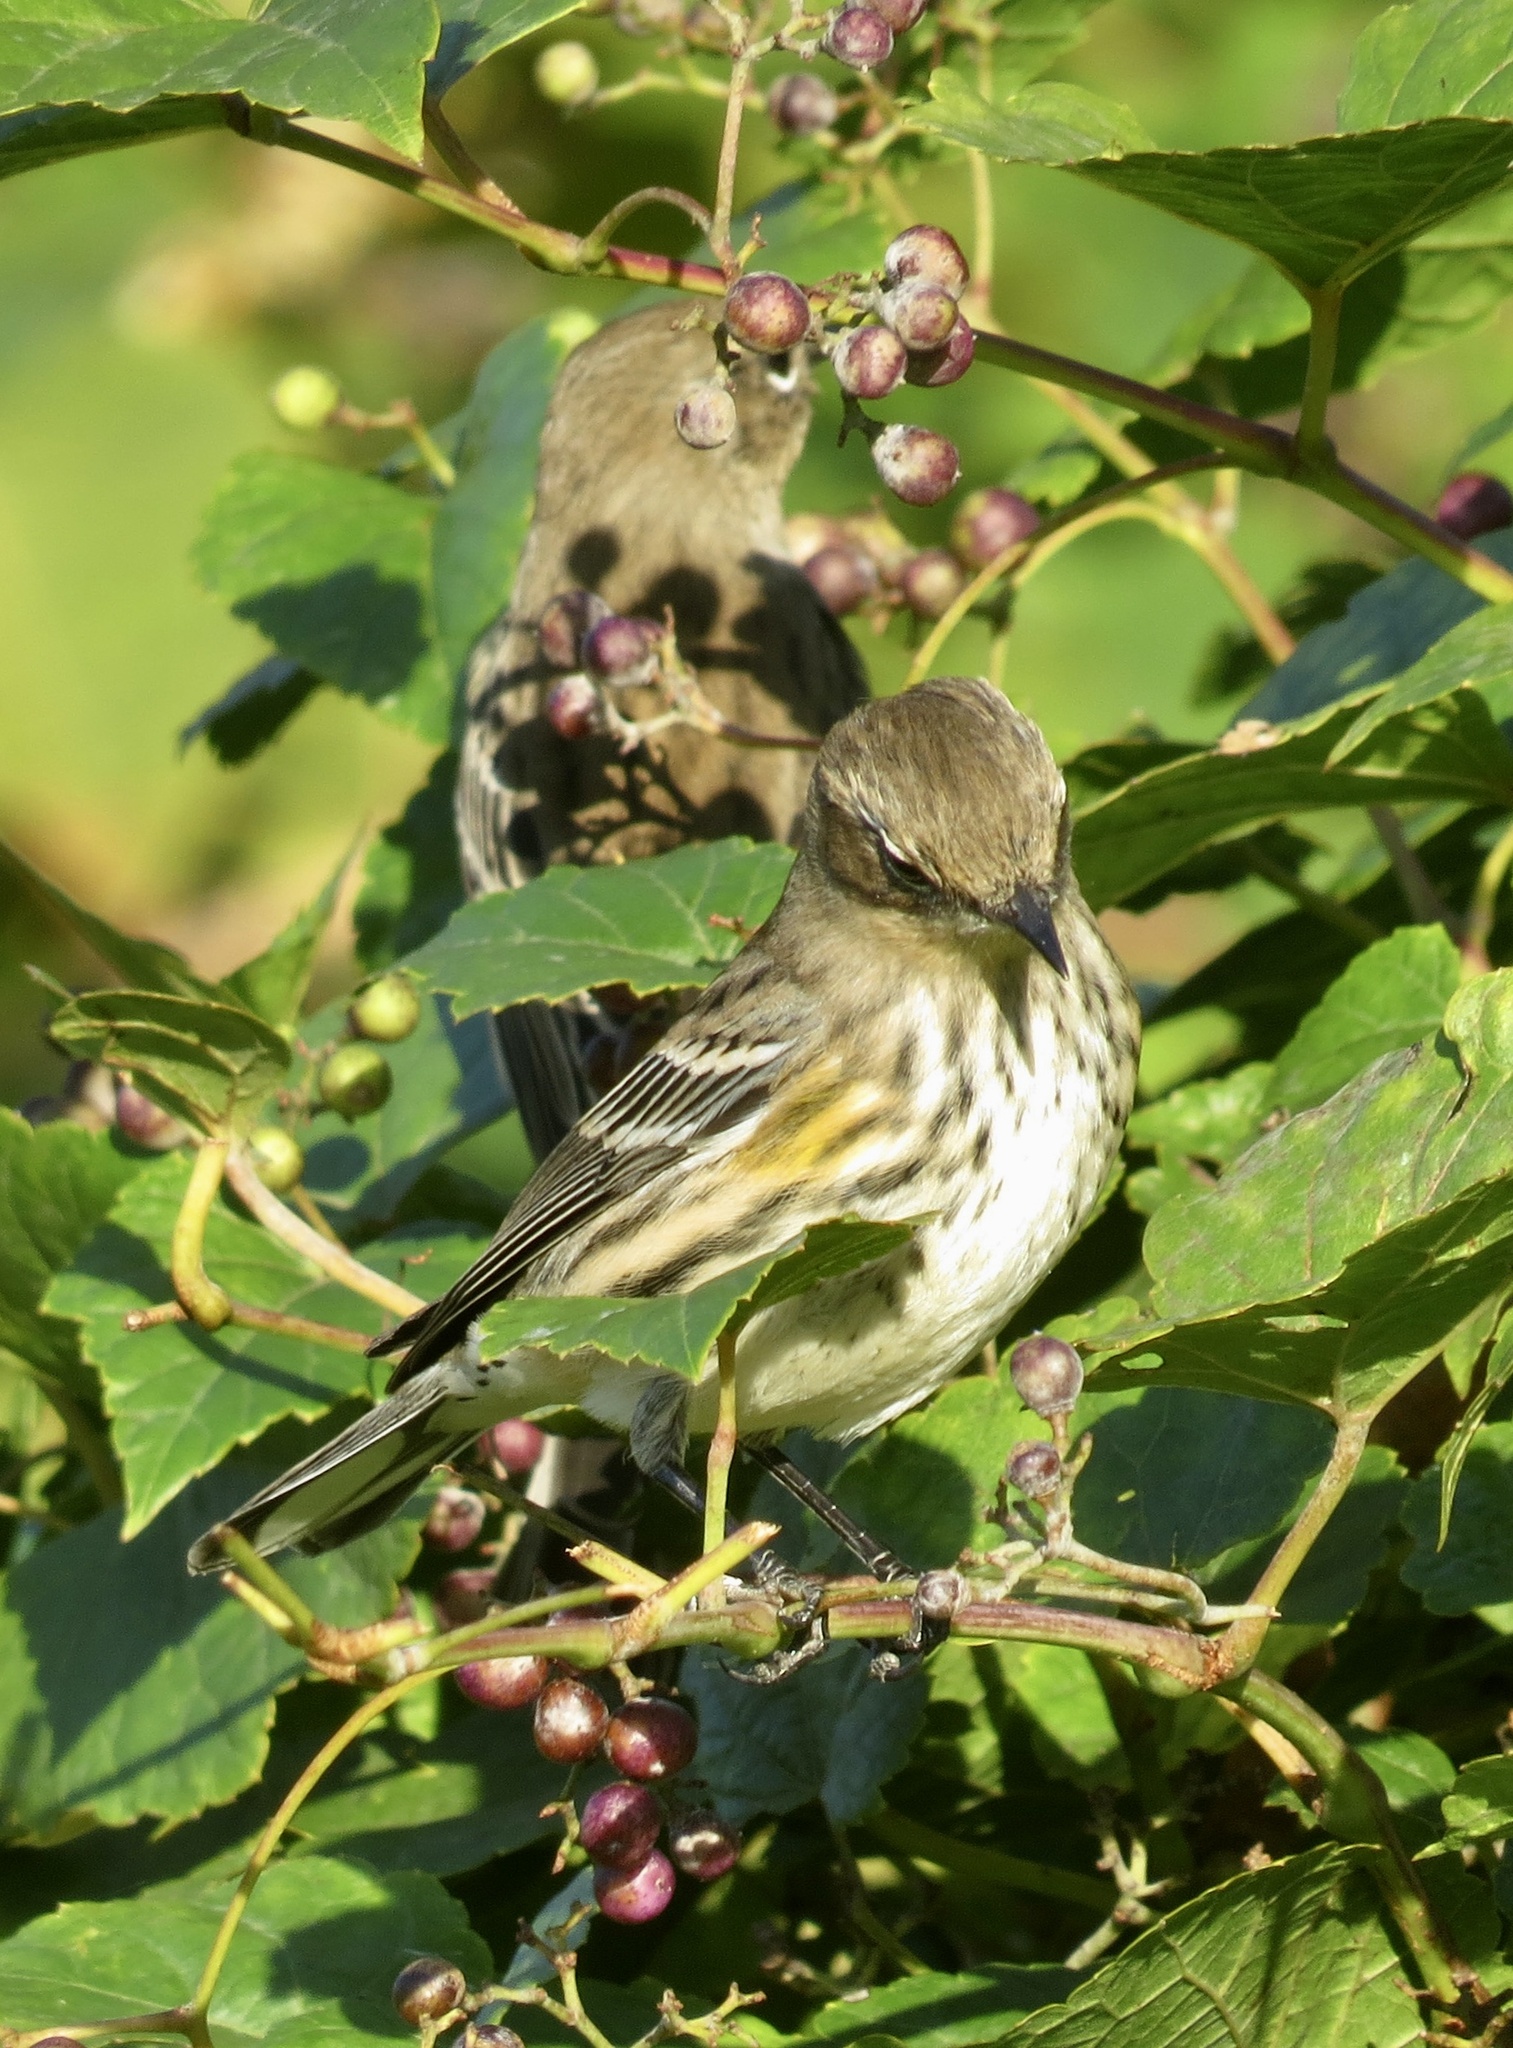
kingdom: Animalia
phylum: Chordata
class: Aves
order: Passeriformes
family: Parulidae
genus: Setophaga
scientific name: Setophaga coronata
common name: Myrtle warbler
